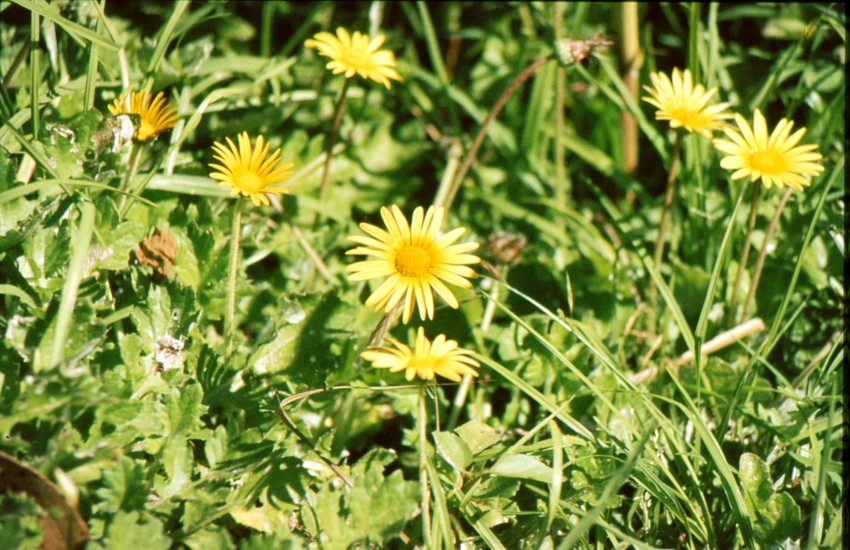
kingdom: Plantae
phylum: Tracheophyta
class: Magnoliopsida
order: Asterales
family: Asteraceae
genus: Arctotheca
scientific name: Arctotheca prostrata
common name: Capeweed
